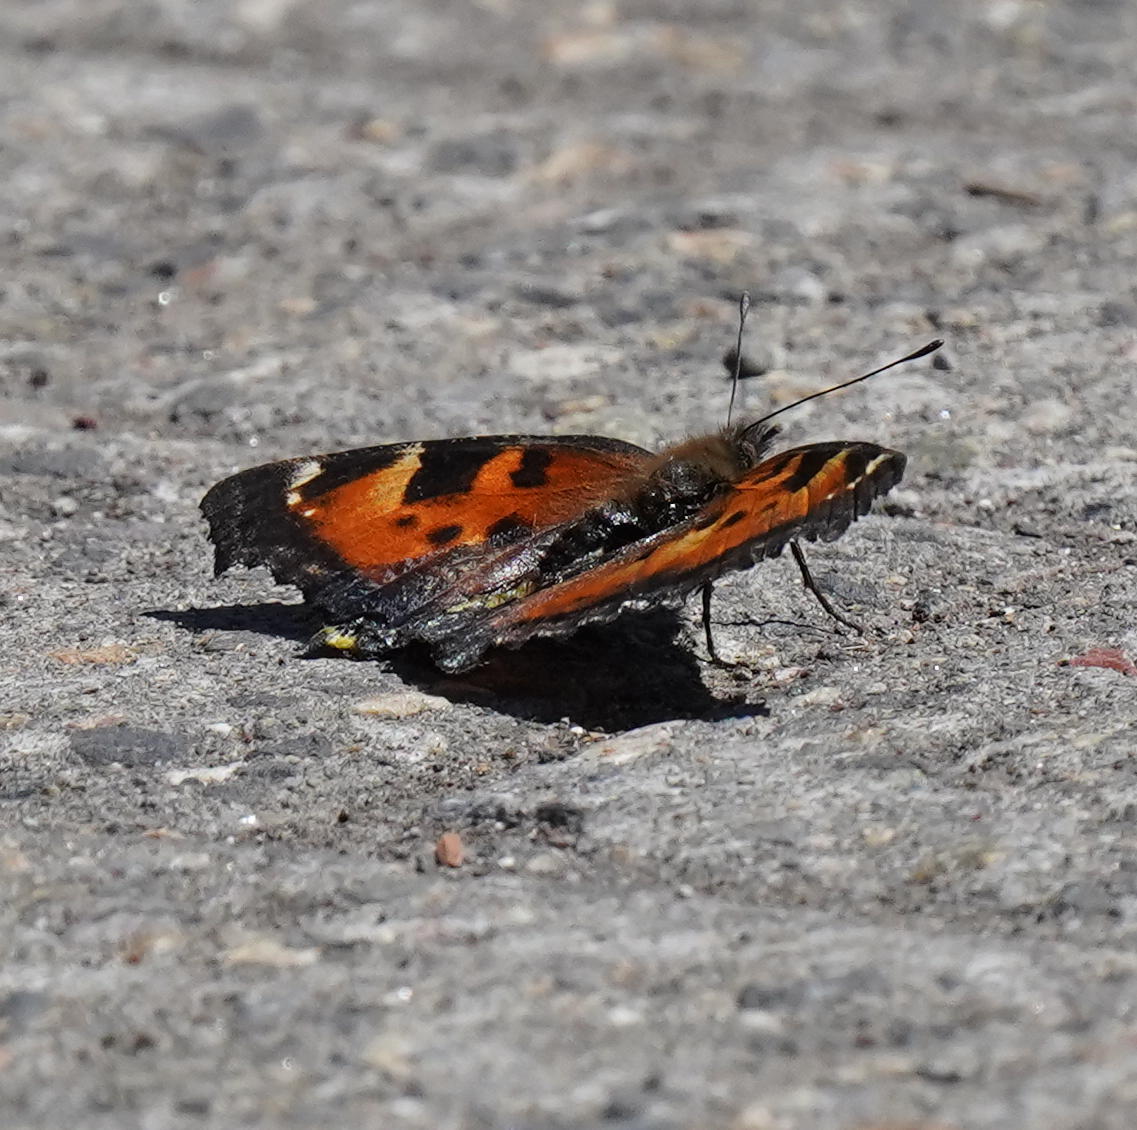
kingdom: Animalia
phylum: Arthropoda
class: Insecta
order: Lepidoptera
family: Nymphalidae
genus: Nymphalis
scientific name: Nymphalis californica
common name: California tortoiseshell
